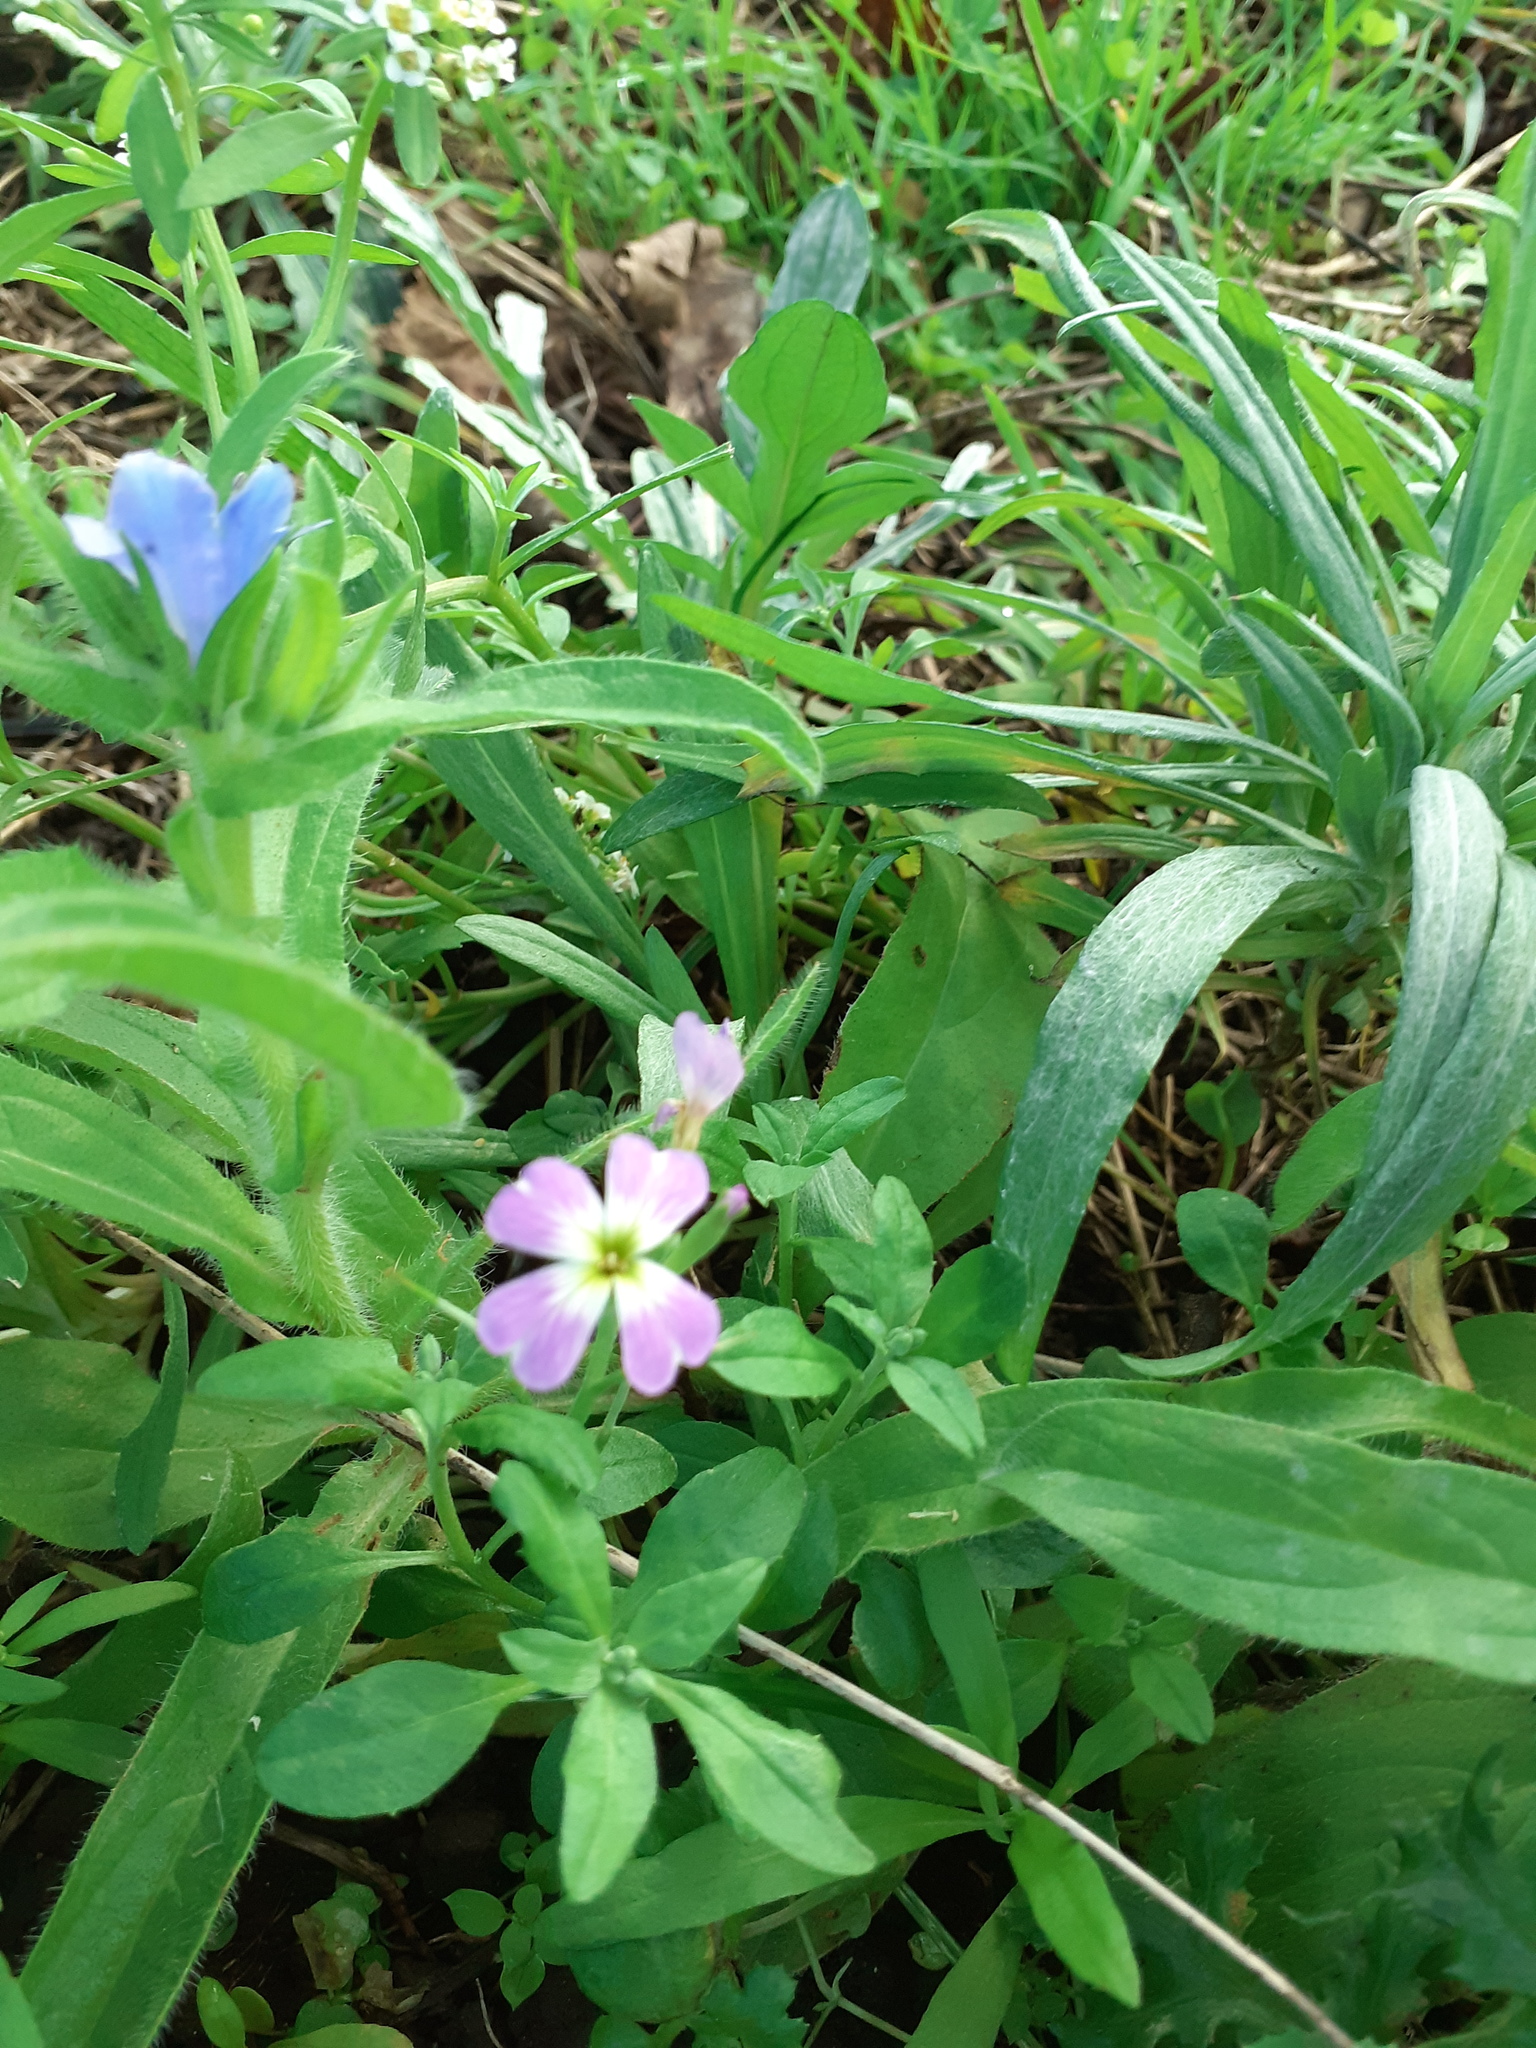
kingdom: Plantae
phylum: Tracheophyta
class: Magnoliopsida
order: Brassicales
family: Brassicaceae
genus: Malcolmia
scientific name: Malcolmia maritima
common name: Virginia stock
